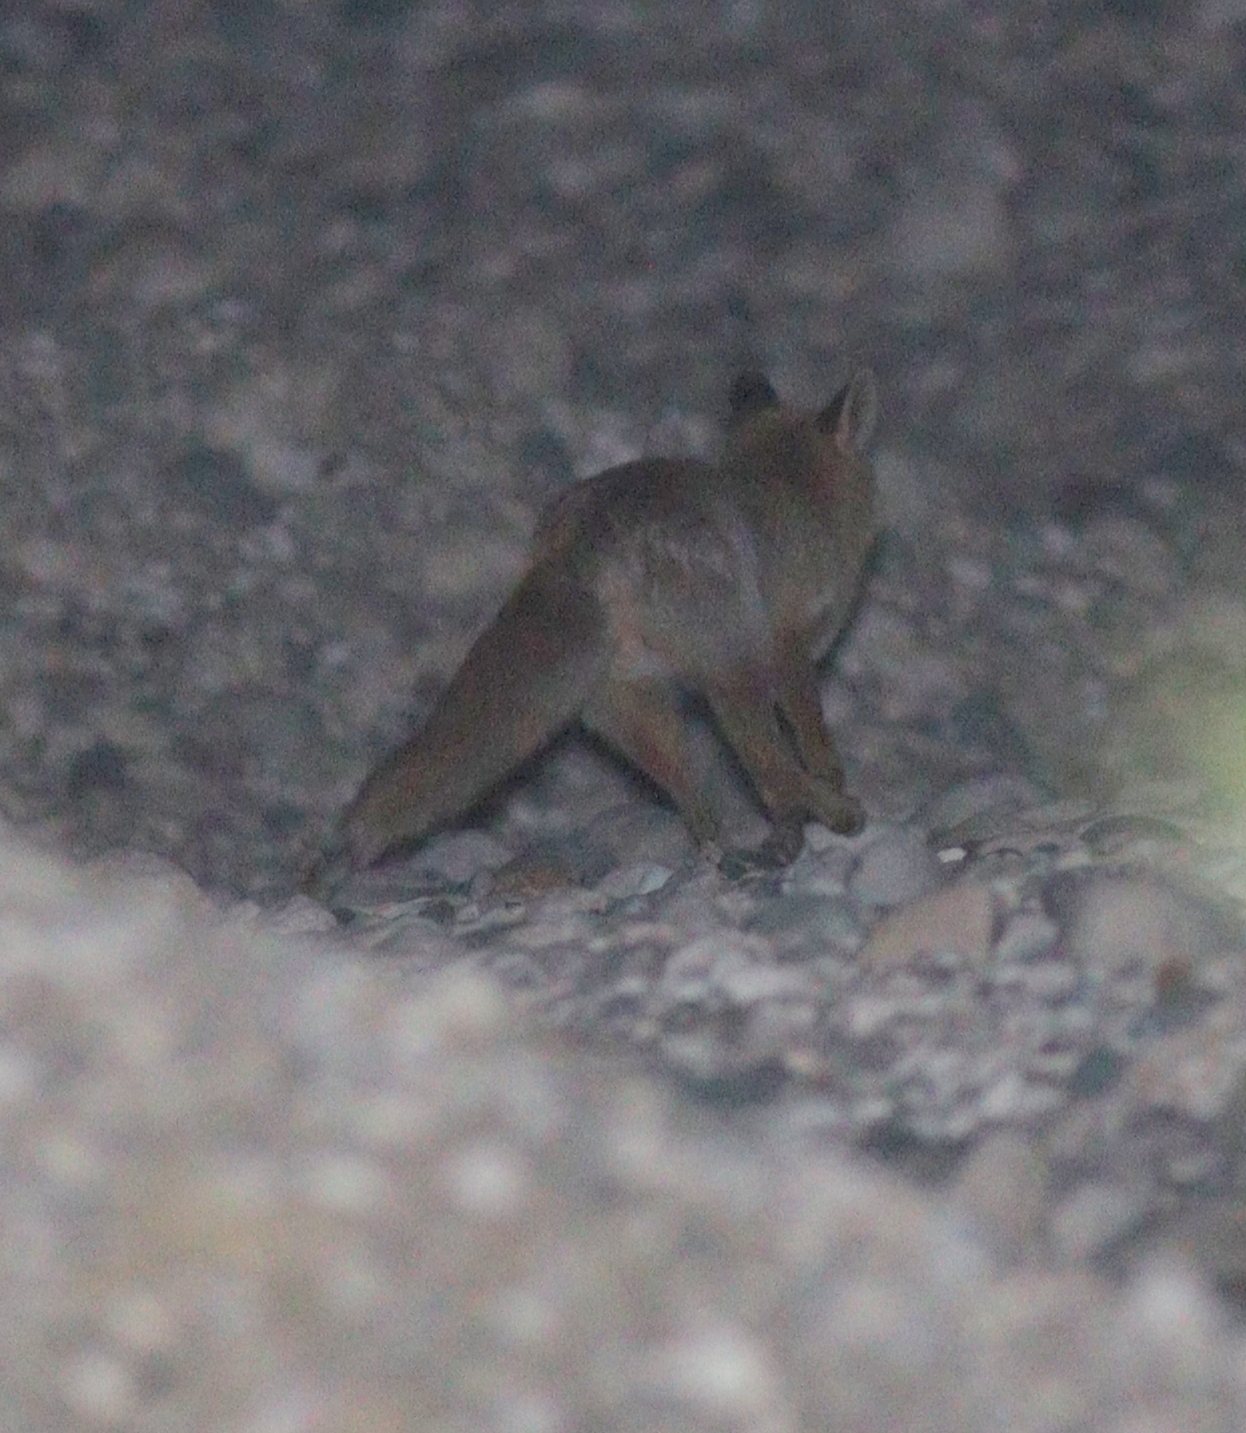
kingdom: Animalia
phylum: Chordata
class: Mammalia
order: Carnivora
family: Canidae
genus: Vulpes
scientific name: Vulpes vulpes
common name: Red fox
